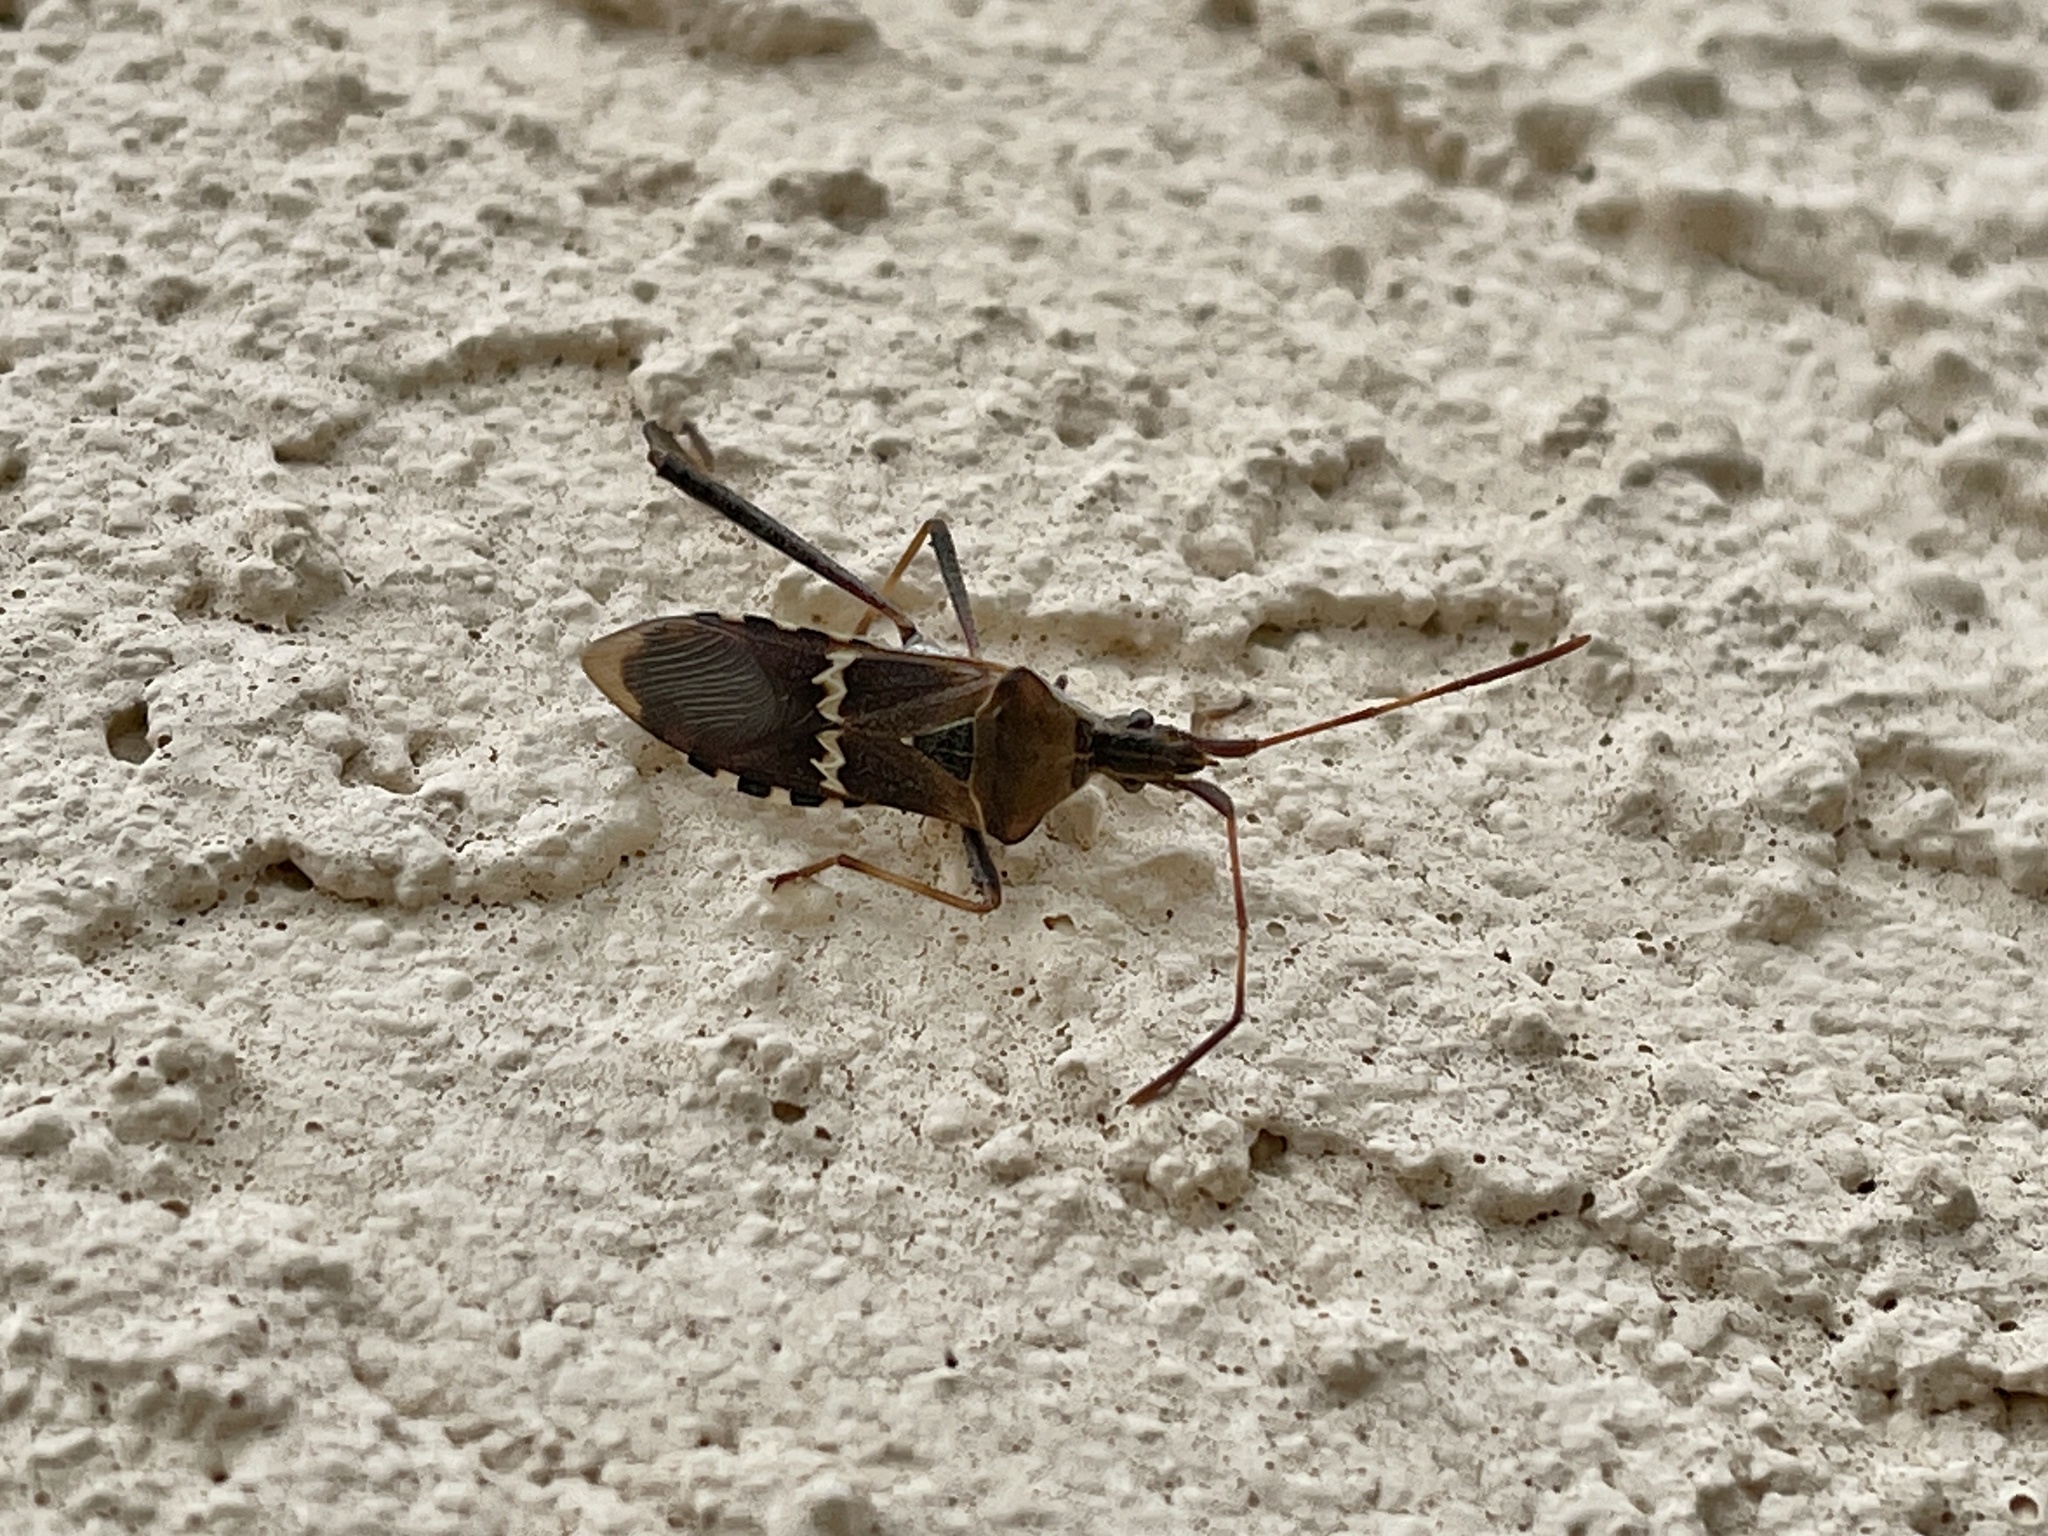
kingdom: Animalia
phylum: Arthropoda
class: Insecta
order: Hemiptera
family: Coreidae
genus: Leptoglossus
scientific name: Leptoglossus clypealis
